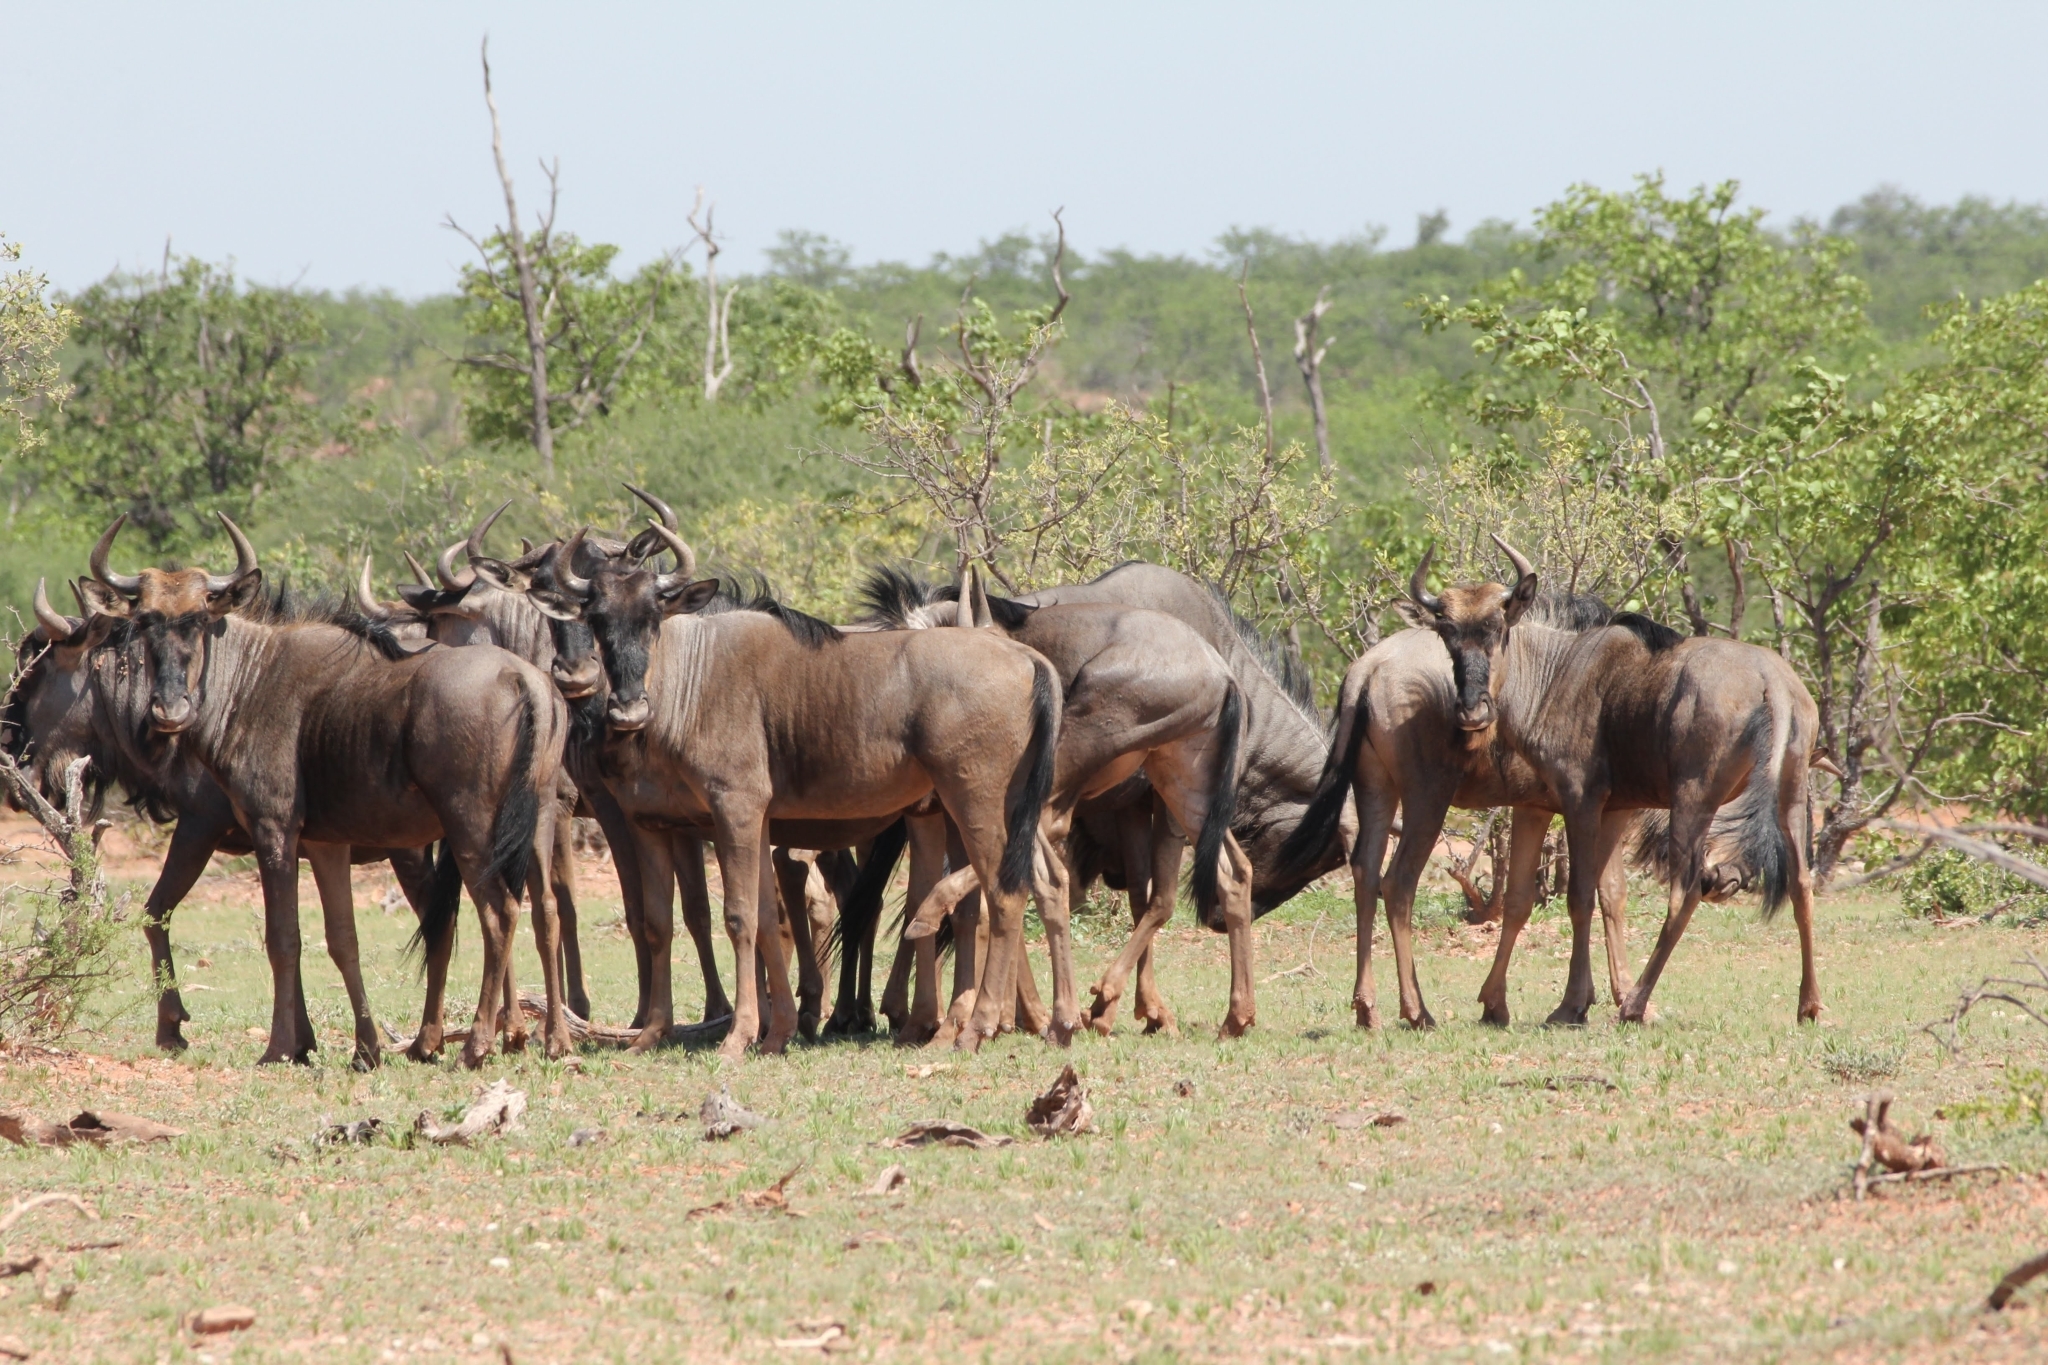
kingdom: Animalia
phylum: Chordata
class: Mammalia
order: Artiodactyla
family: Bovidae
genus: Connochaetes
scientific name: Connochaetes taurinus
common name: Blue wildebeest
